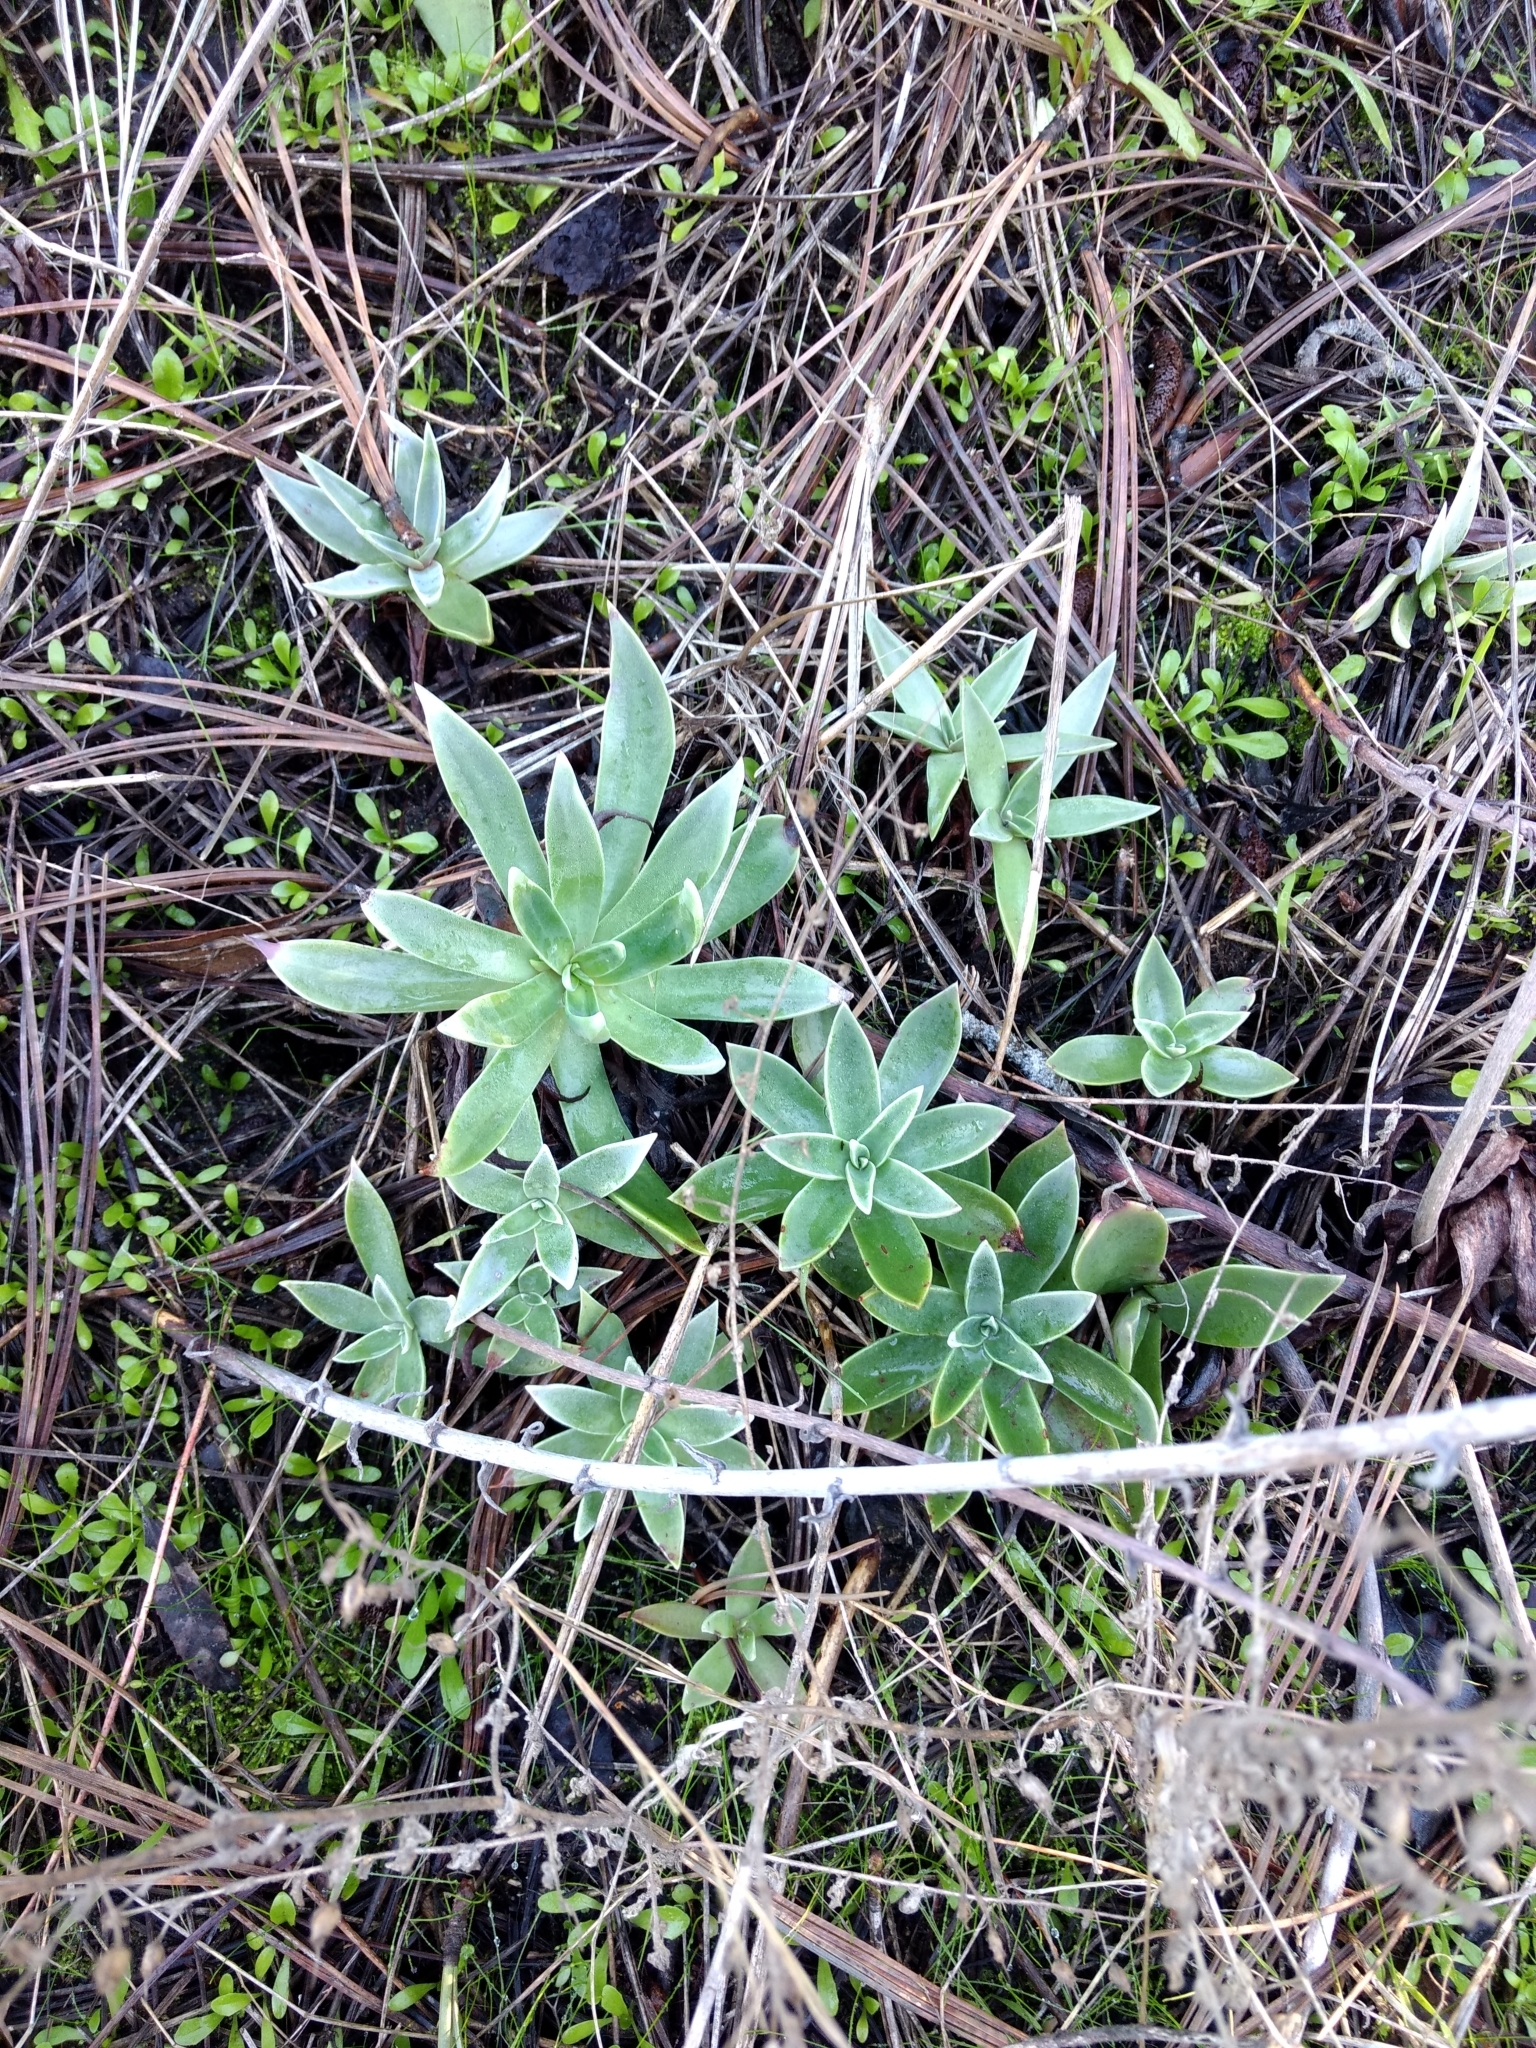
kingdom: Plantae
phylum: Tracheophyta
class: Magnoliopsida
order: Saxifragales
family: Crassulaceae
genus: Dudleya
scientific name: Dudleya lanceolata
